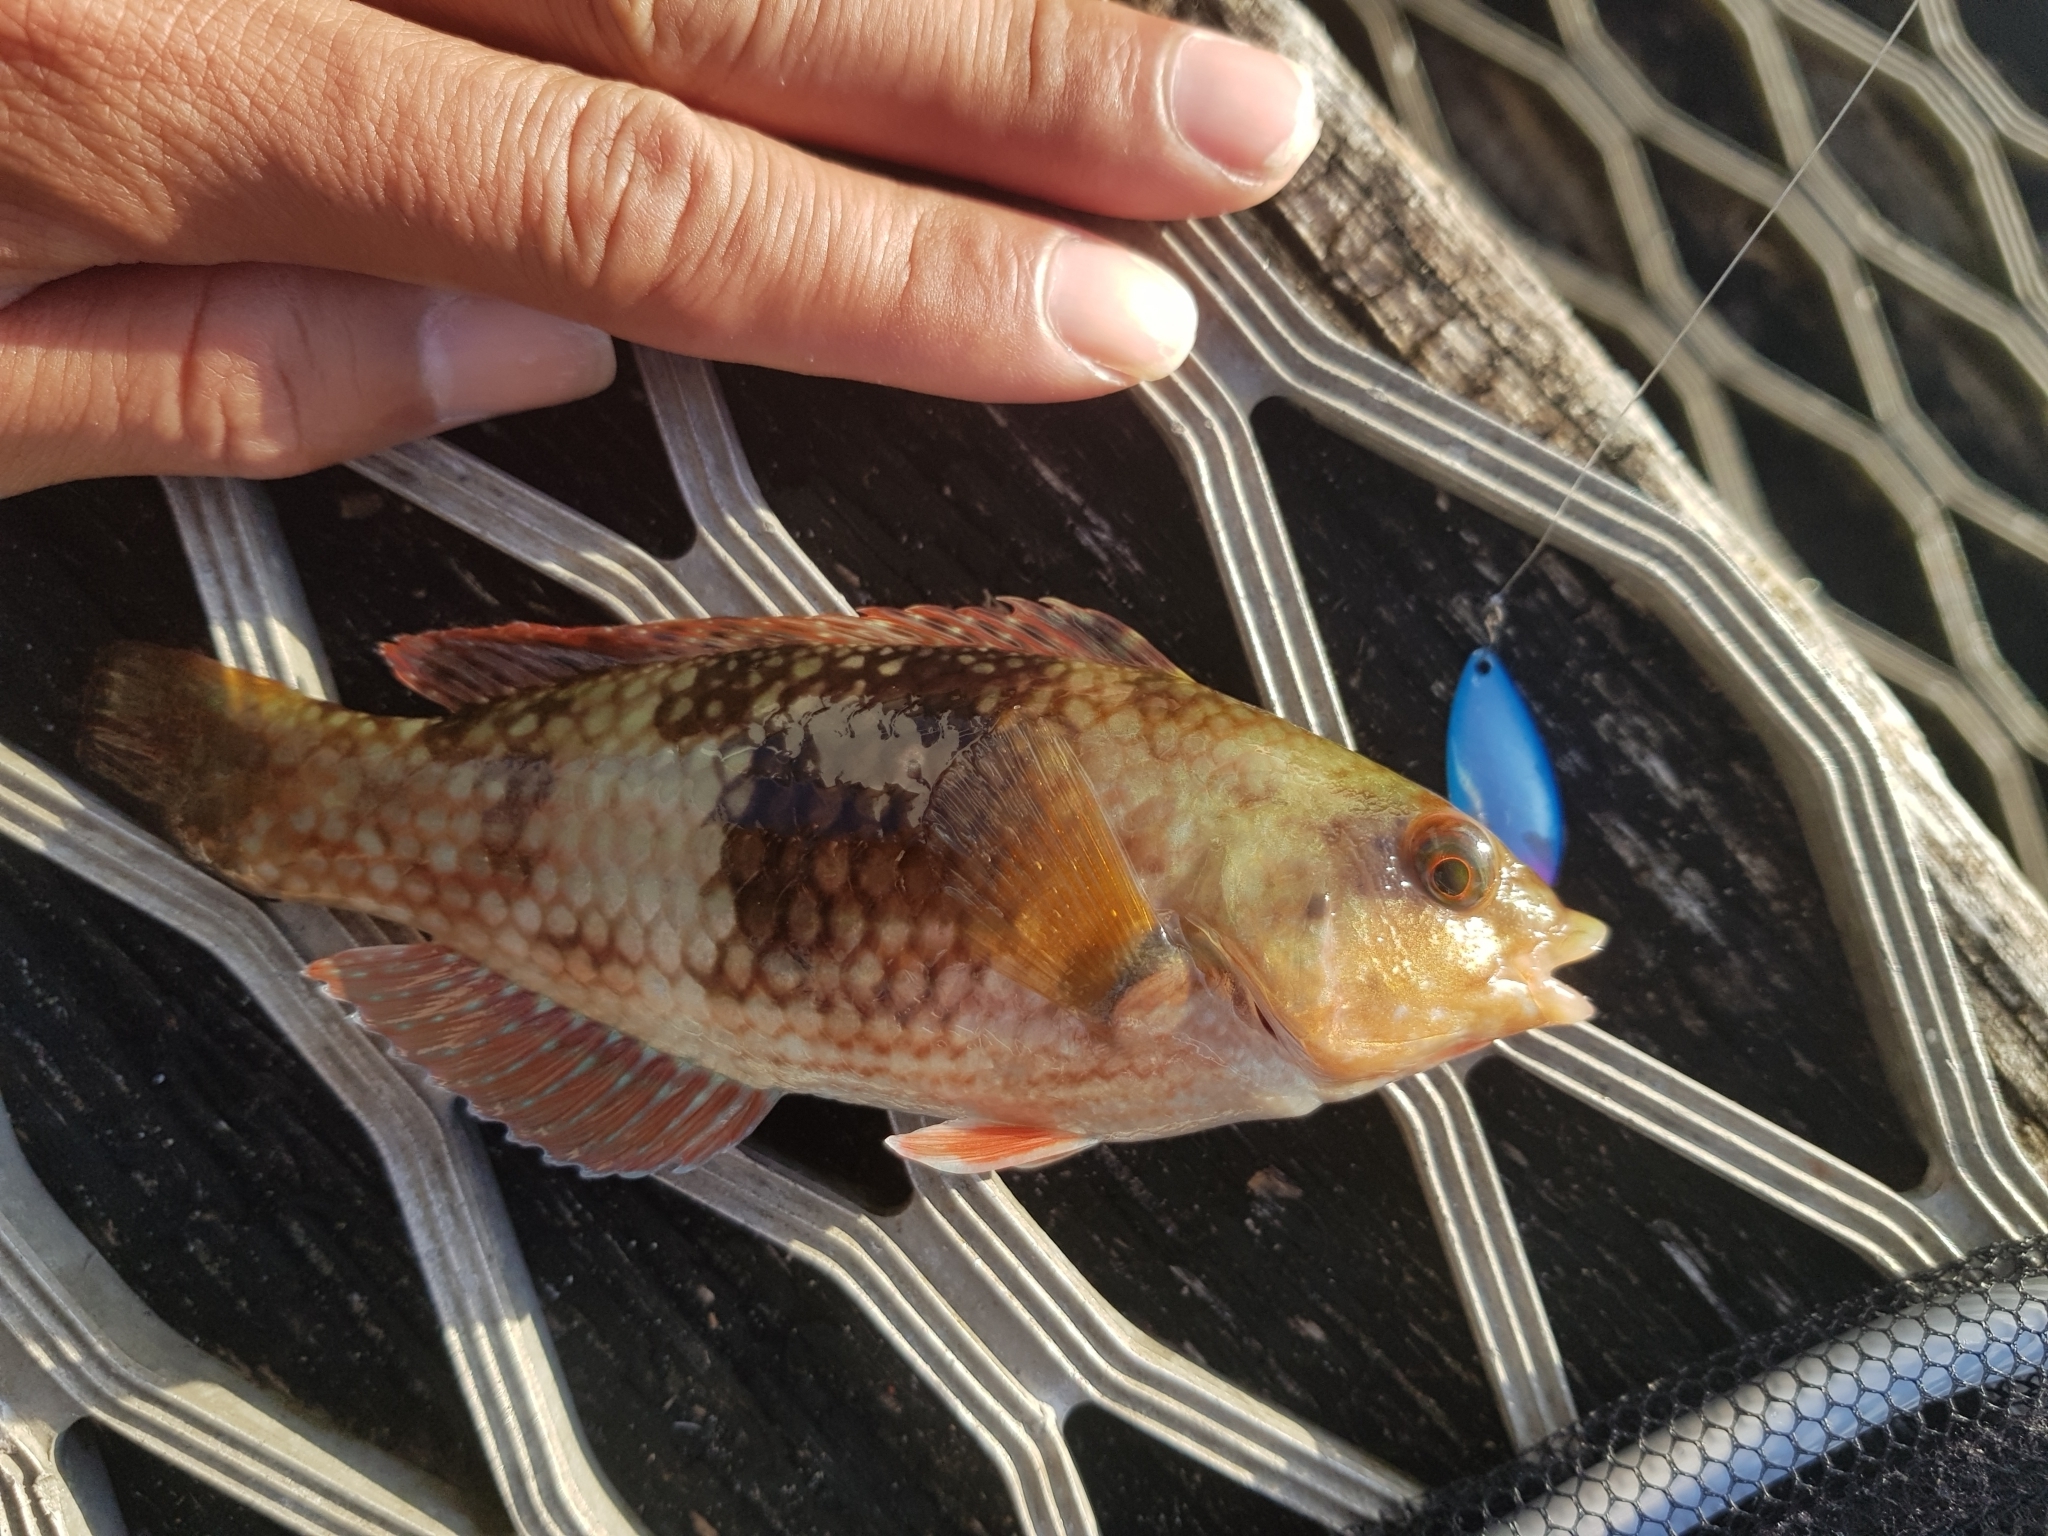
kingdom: Animalia
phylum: Chordata
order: Perciformes
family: Labridae
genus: Notolabrus
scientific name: Notolabrus tetricus
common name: Blue-throated parrotfish
